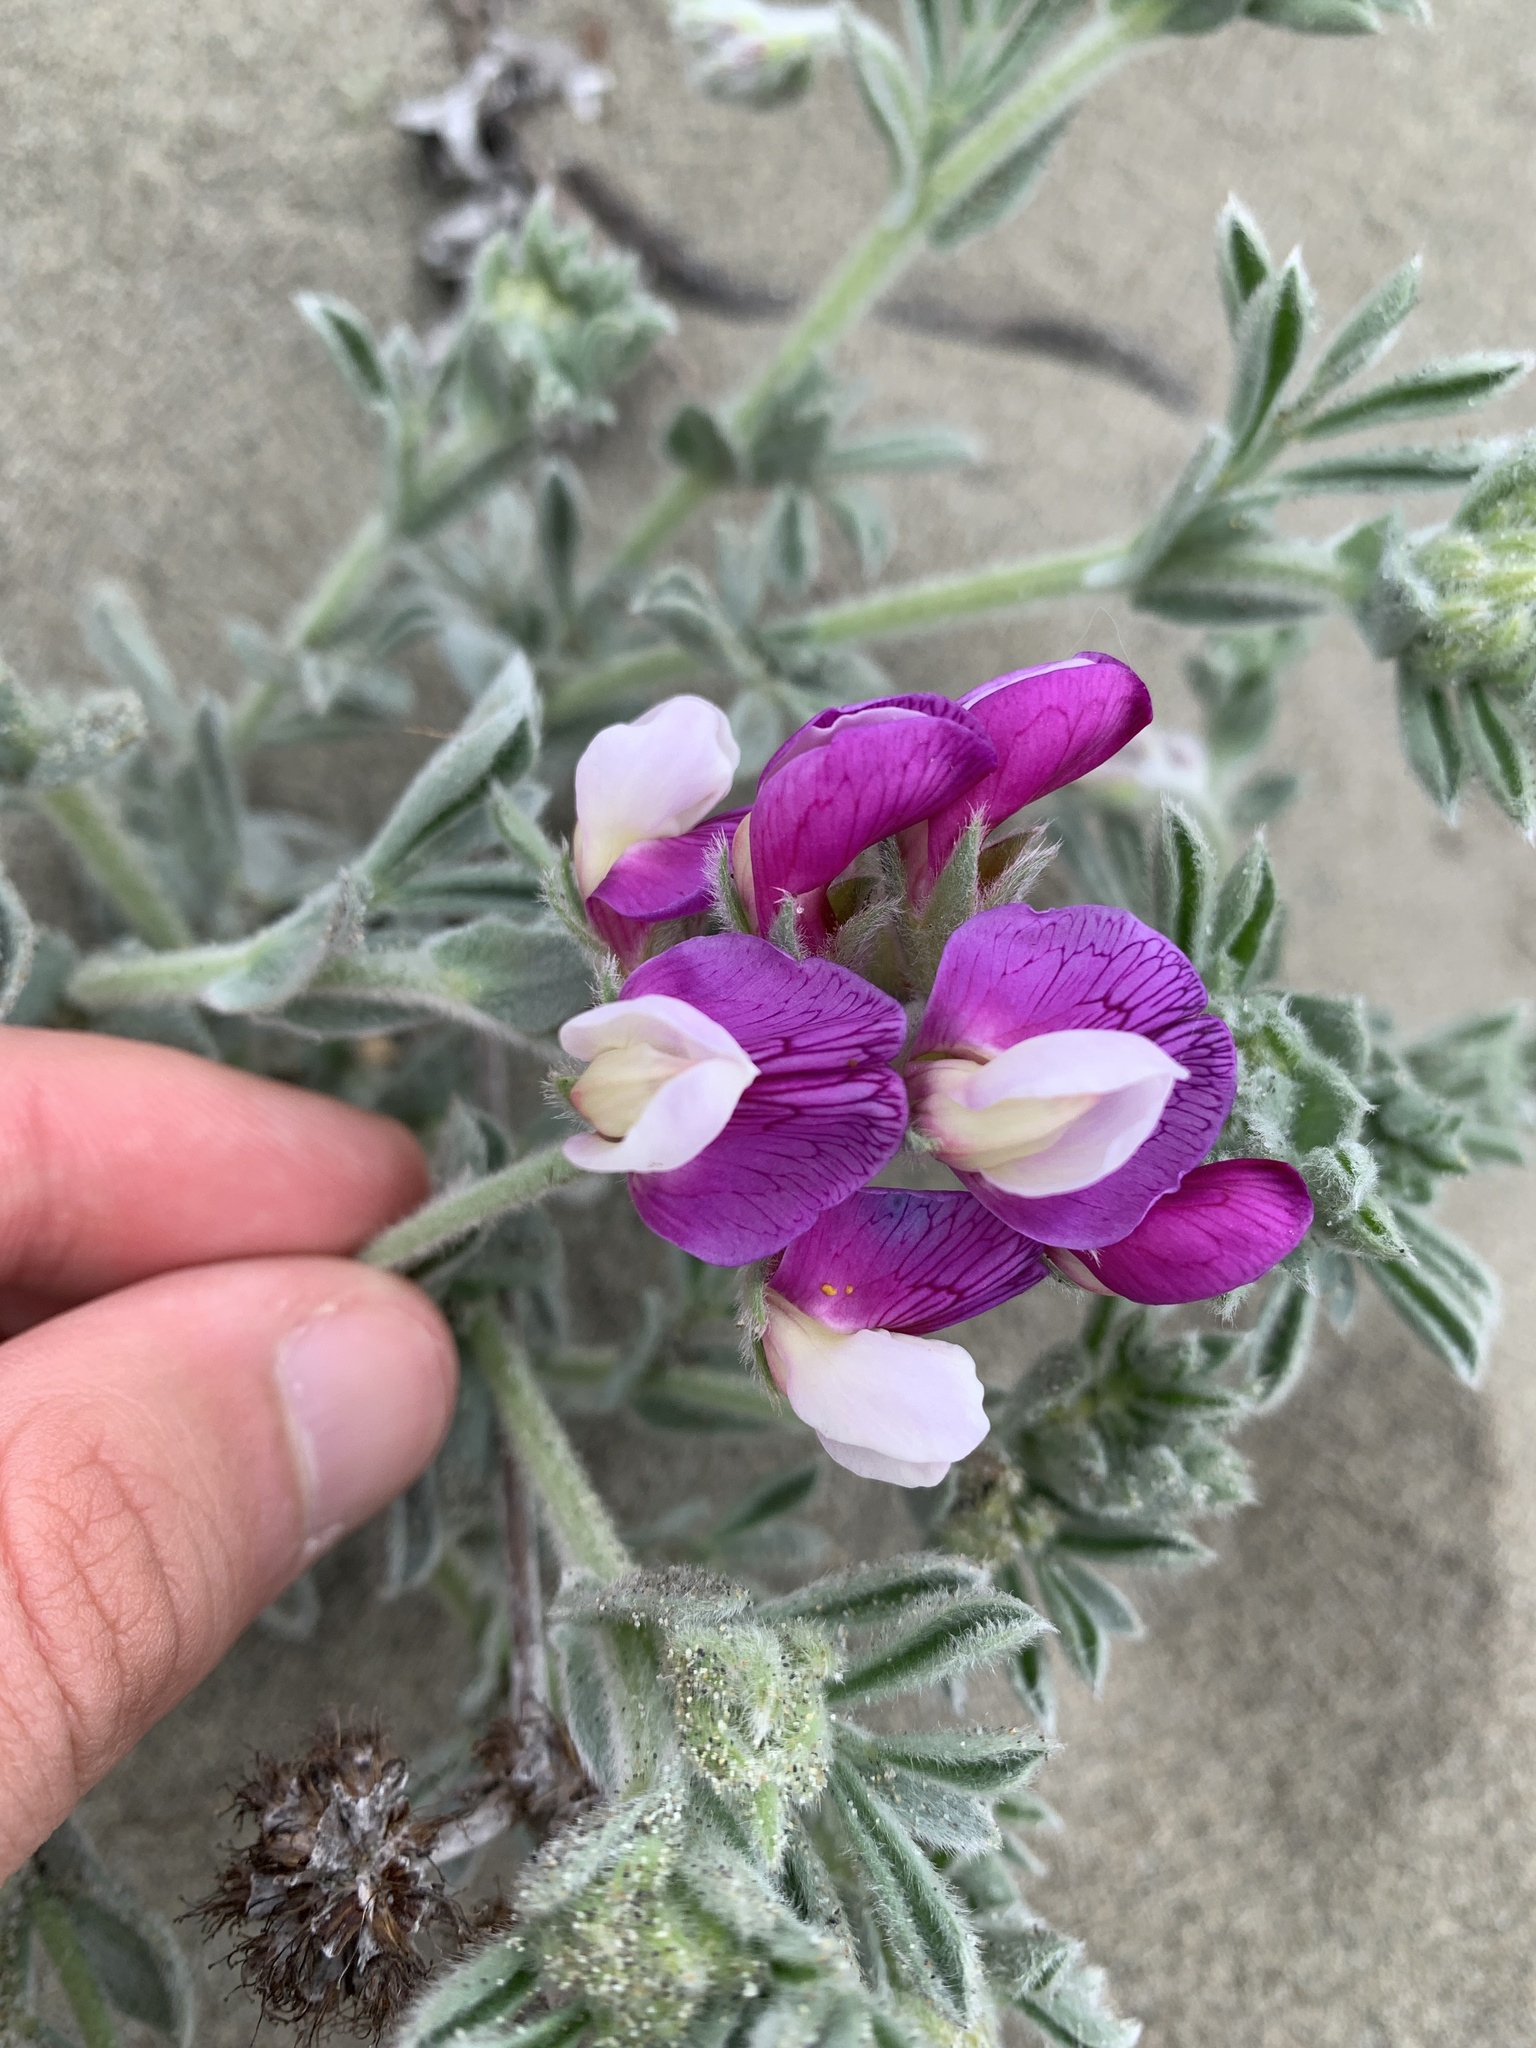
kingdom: Plantae
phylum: Tracheophyta
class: Magnoliopsida
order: Fabales
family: Fabaceae
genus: Lathyrus
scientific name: Lathyrus littoralis
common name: Dune sweet pea
